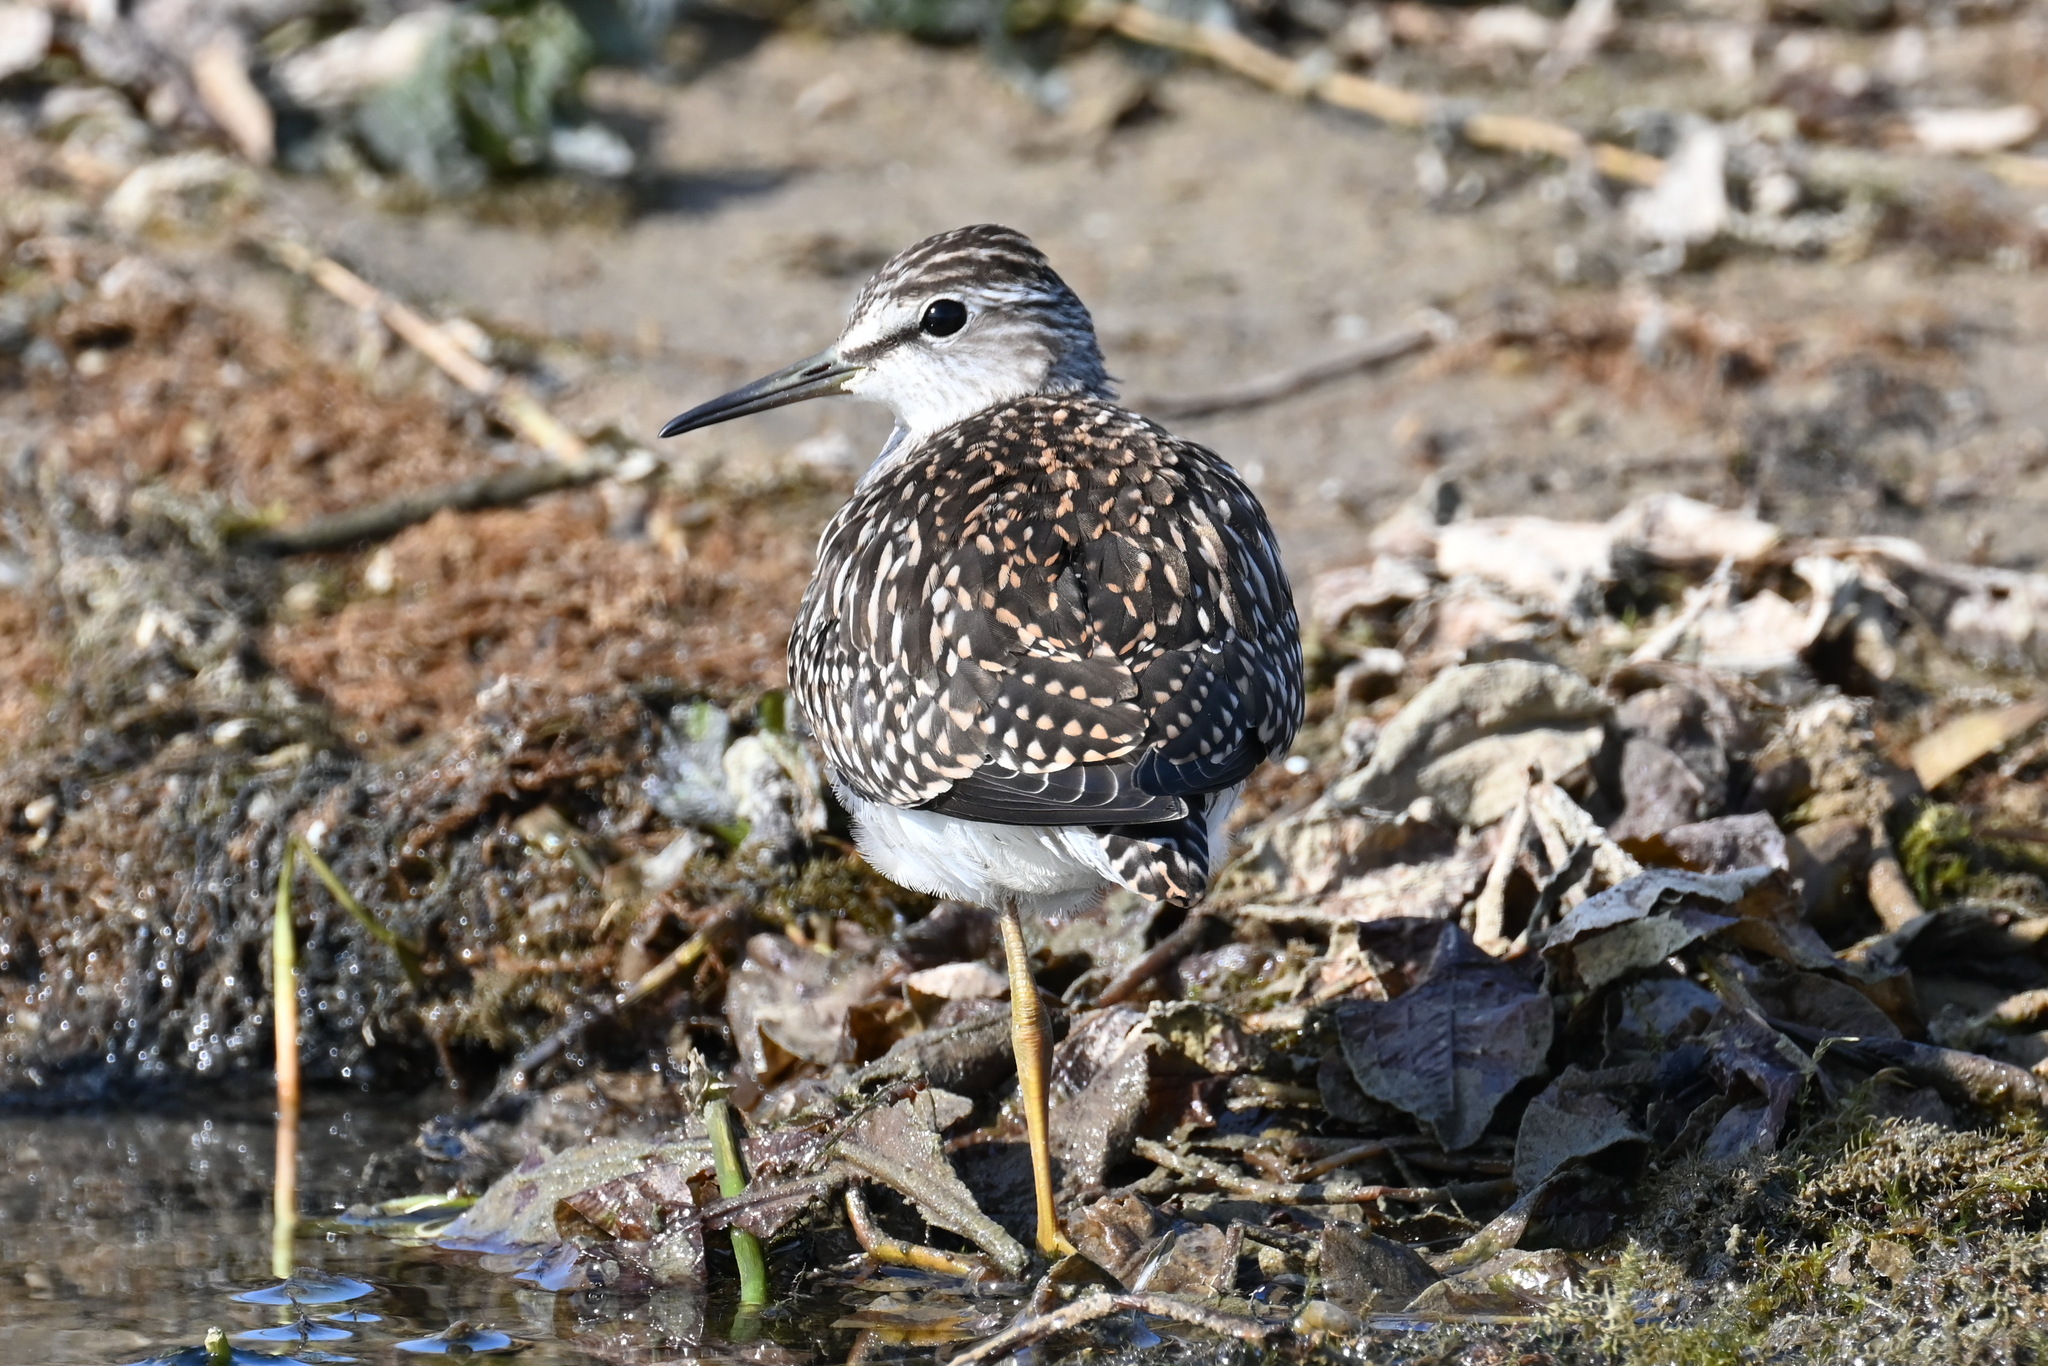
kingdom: Animalia
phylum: Chordata
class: Aves
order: Charadriiformes
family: Scolopacidae
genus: Tringa
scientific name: Tringa glareola
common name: Wood sandpiper
